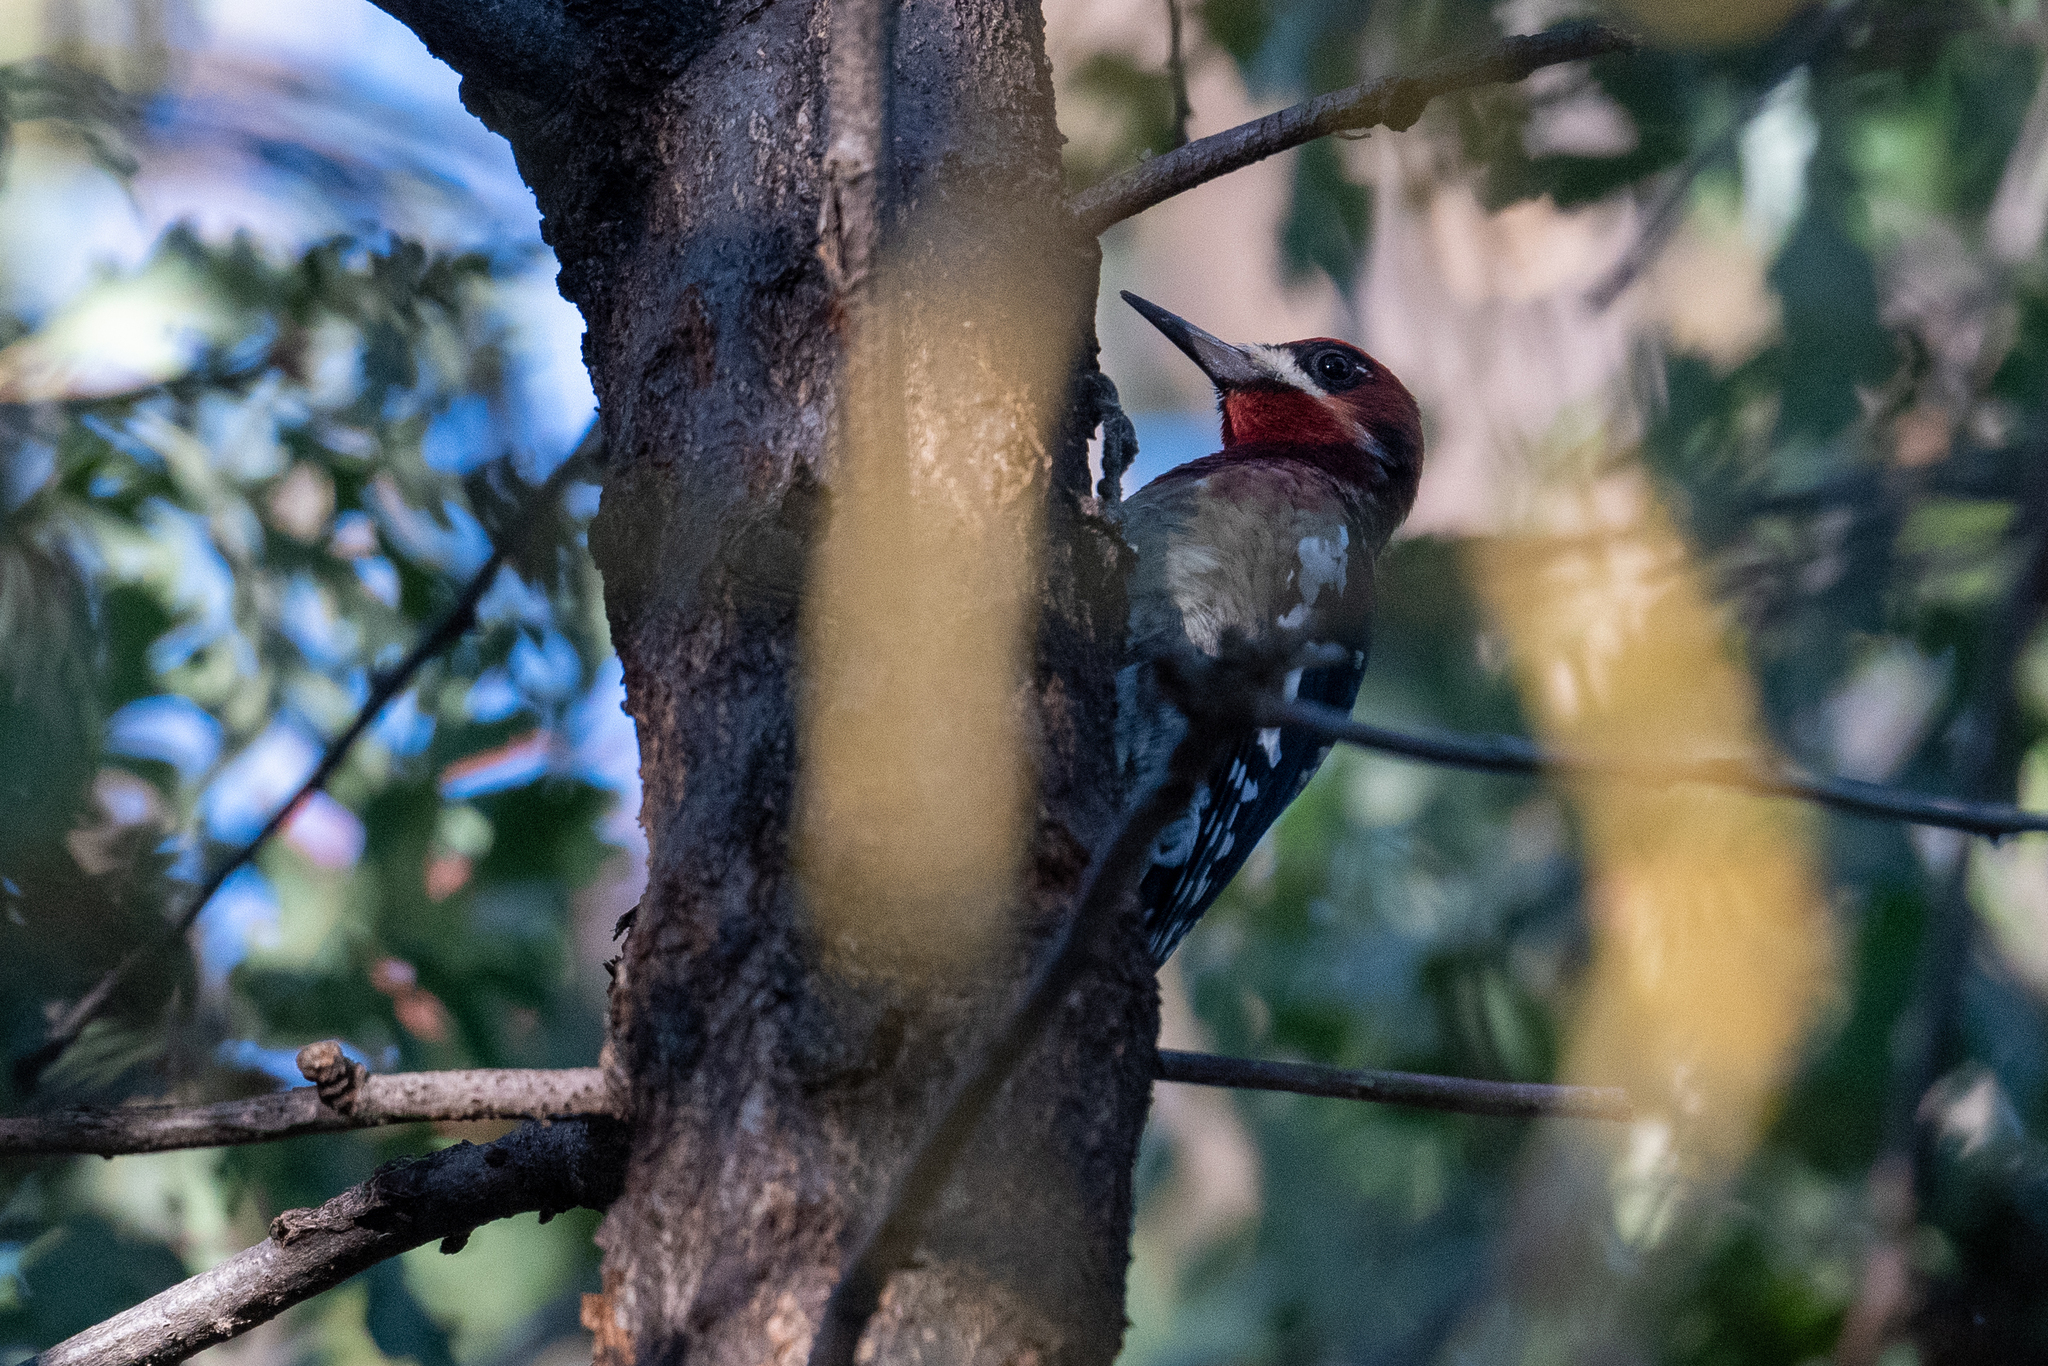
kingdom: Animalia
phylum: Chordata
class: Aves
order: Piciformes
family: Picidae
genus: Sphyrapicus
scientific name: Sphyrapicus ruber
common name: Red-breasted sapsucker
